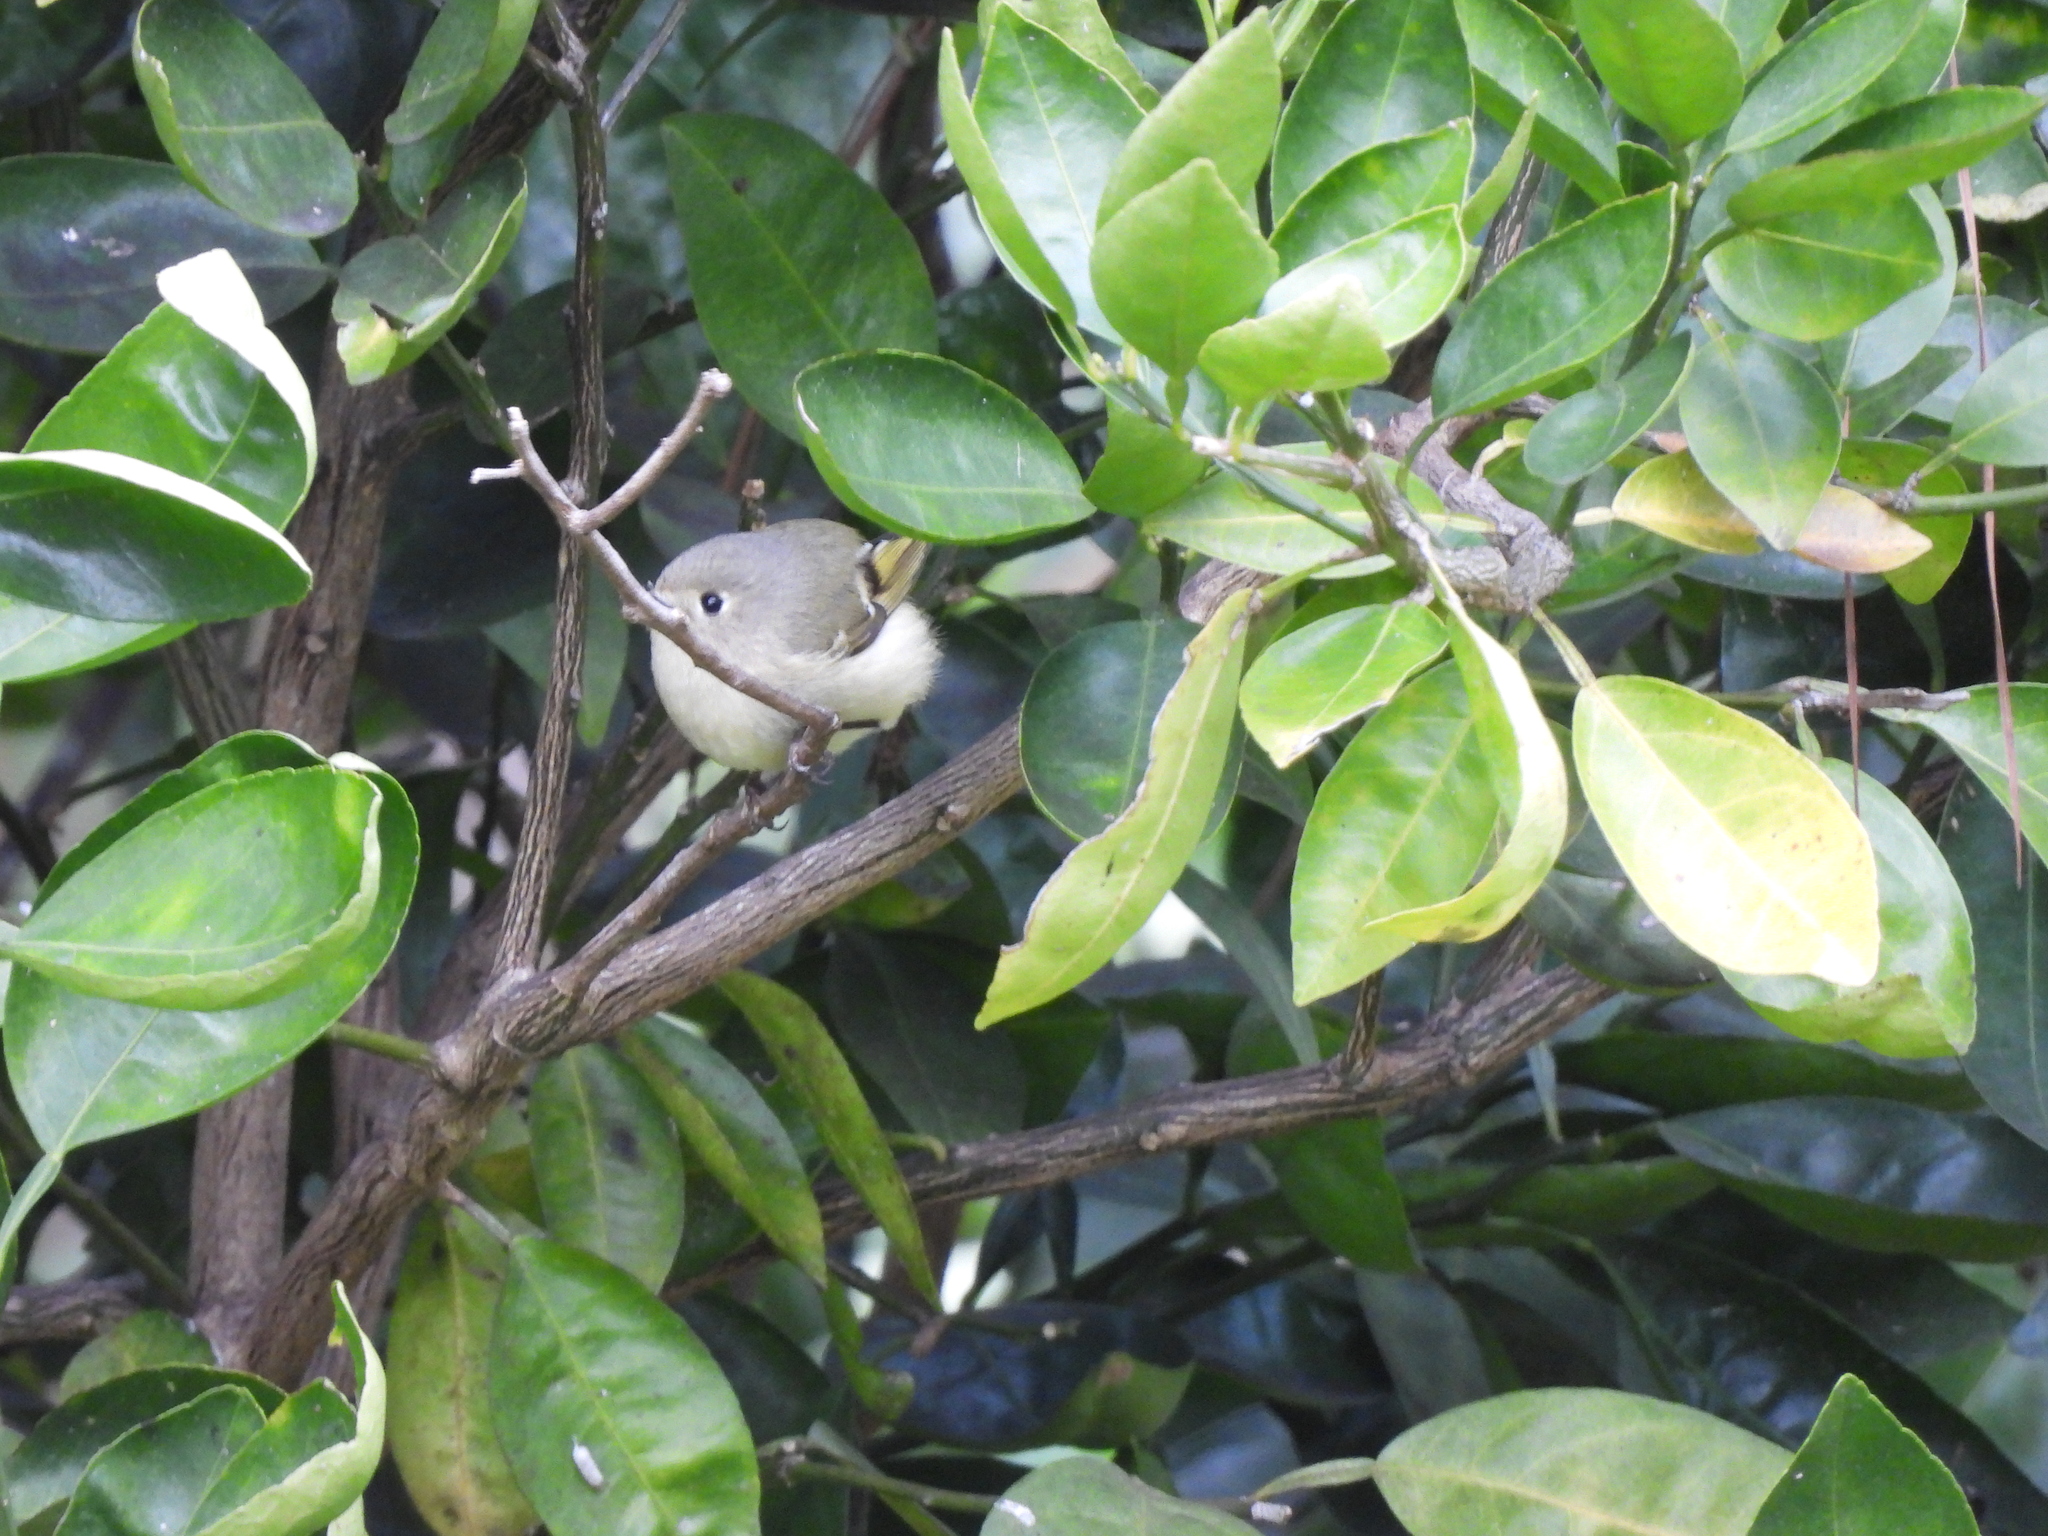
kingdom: Animalia
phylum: Chordata
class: Aves
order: Passeriformes
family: Regulidae
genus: Regulus
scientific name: Regulus calendula
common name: Ruby-crowned kinglet
